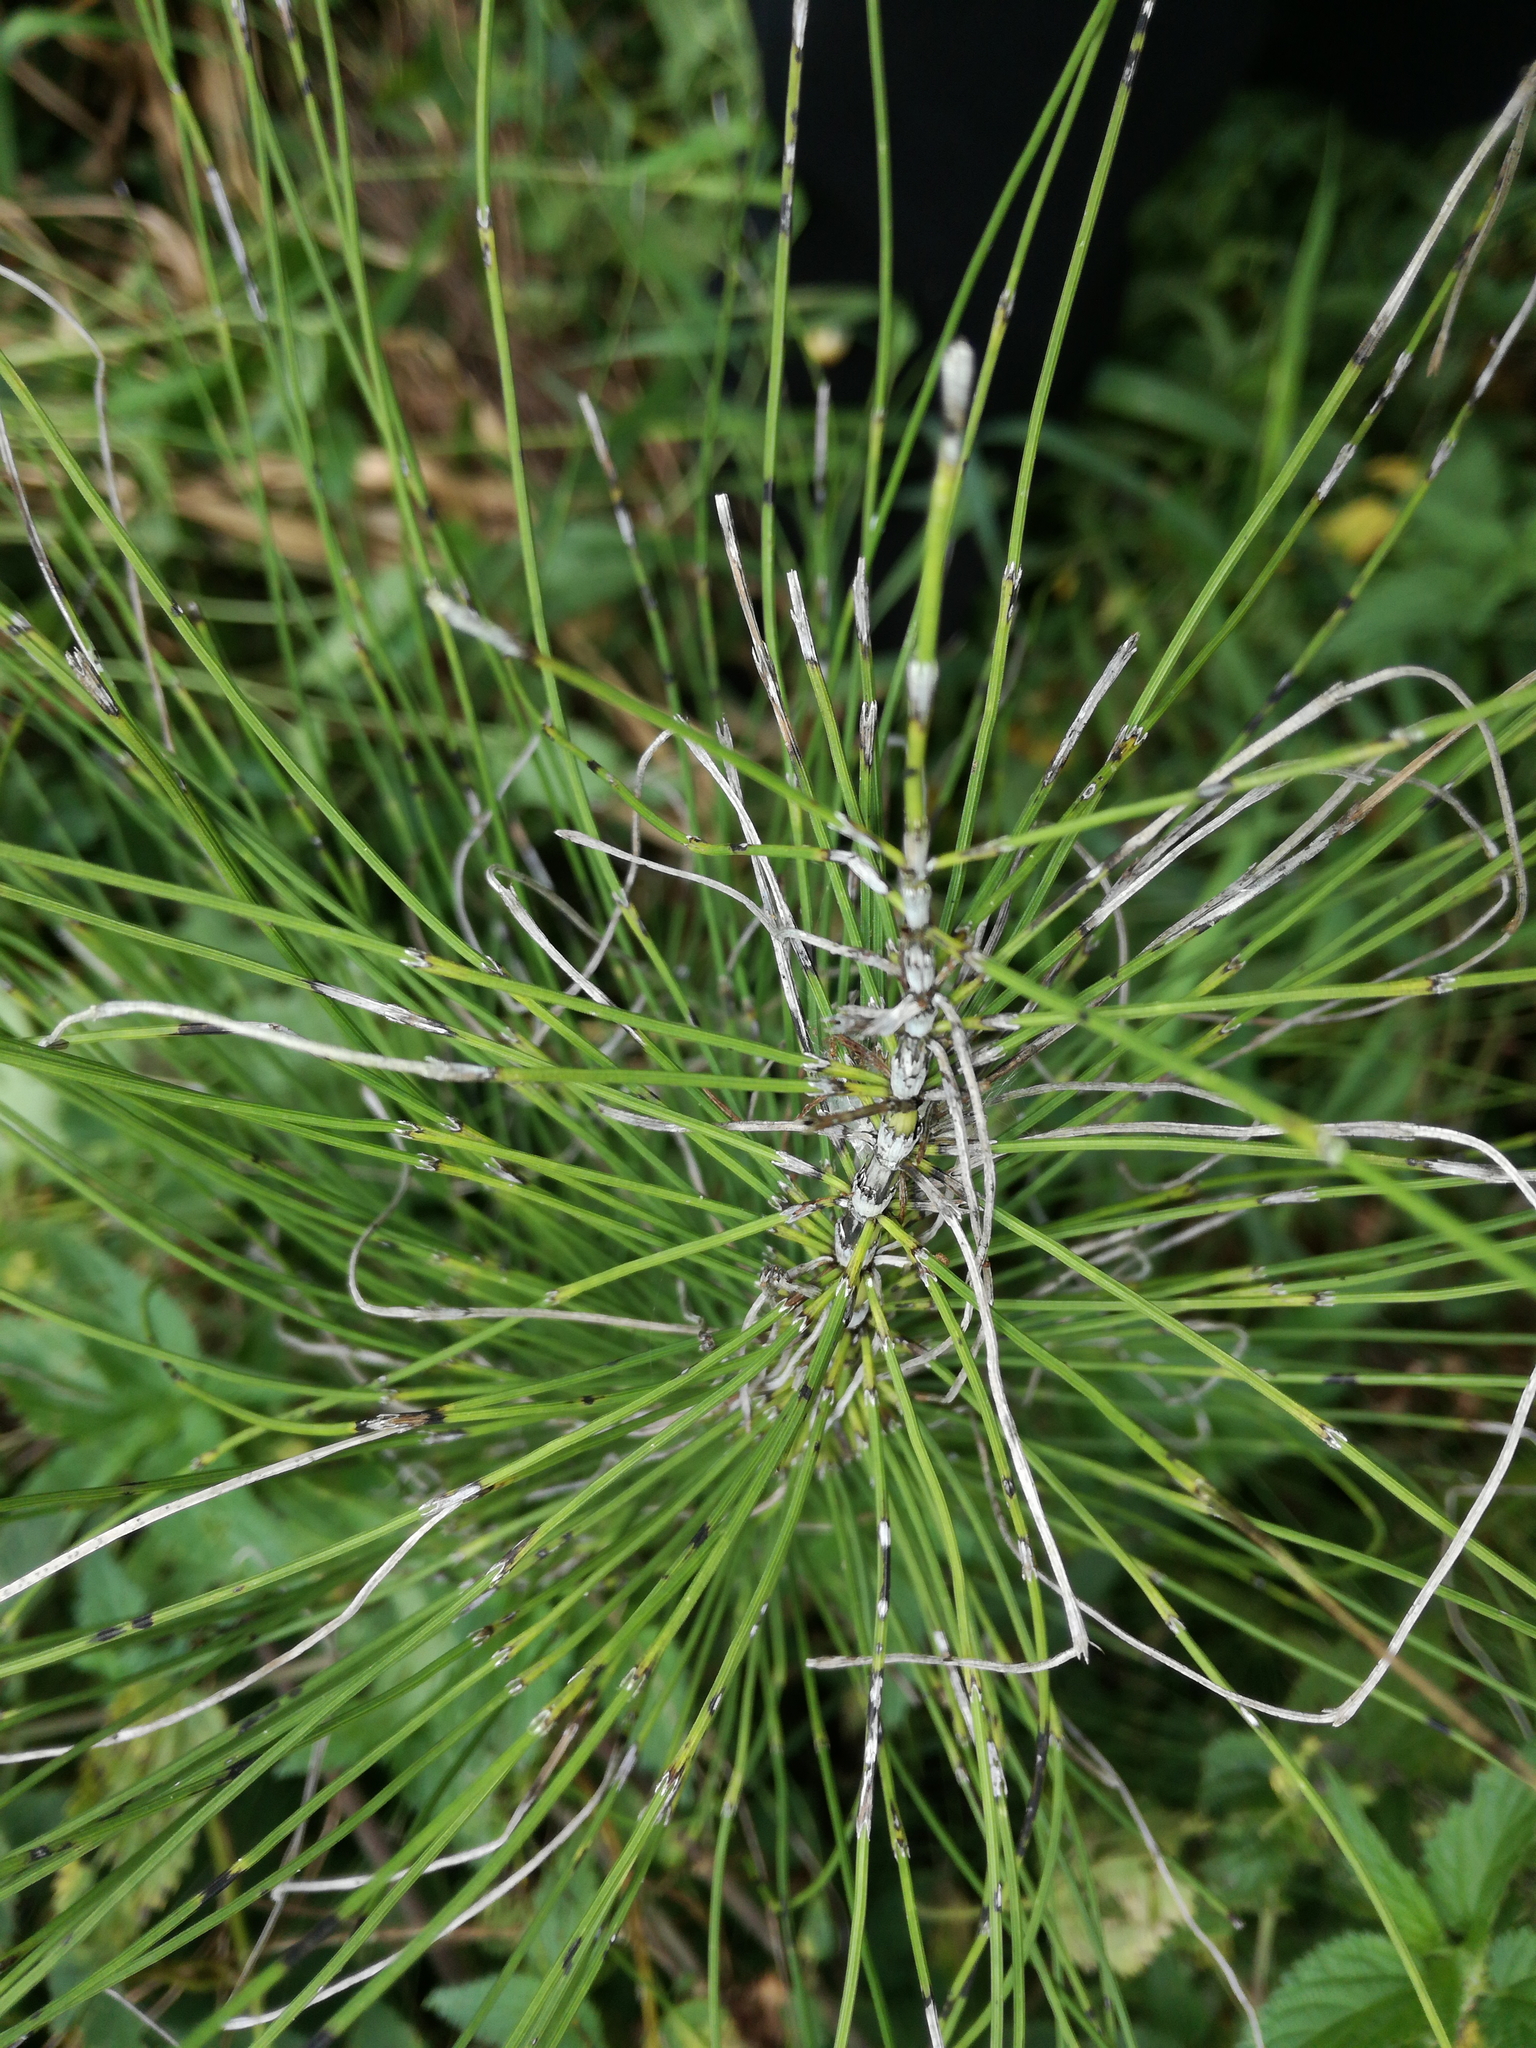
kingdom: Plantae
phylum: Tracheophyta
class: Polypodiopsida
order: Equisetales
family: Equisetaceae
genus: Equisetum
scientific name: Equisetum telmateia
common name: Great horsetail
